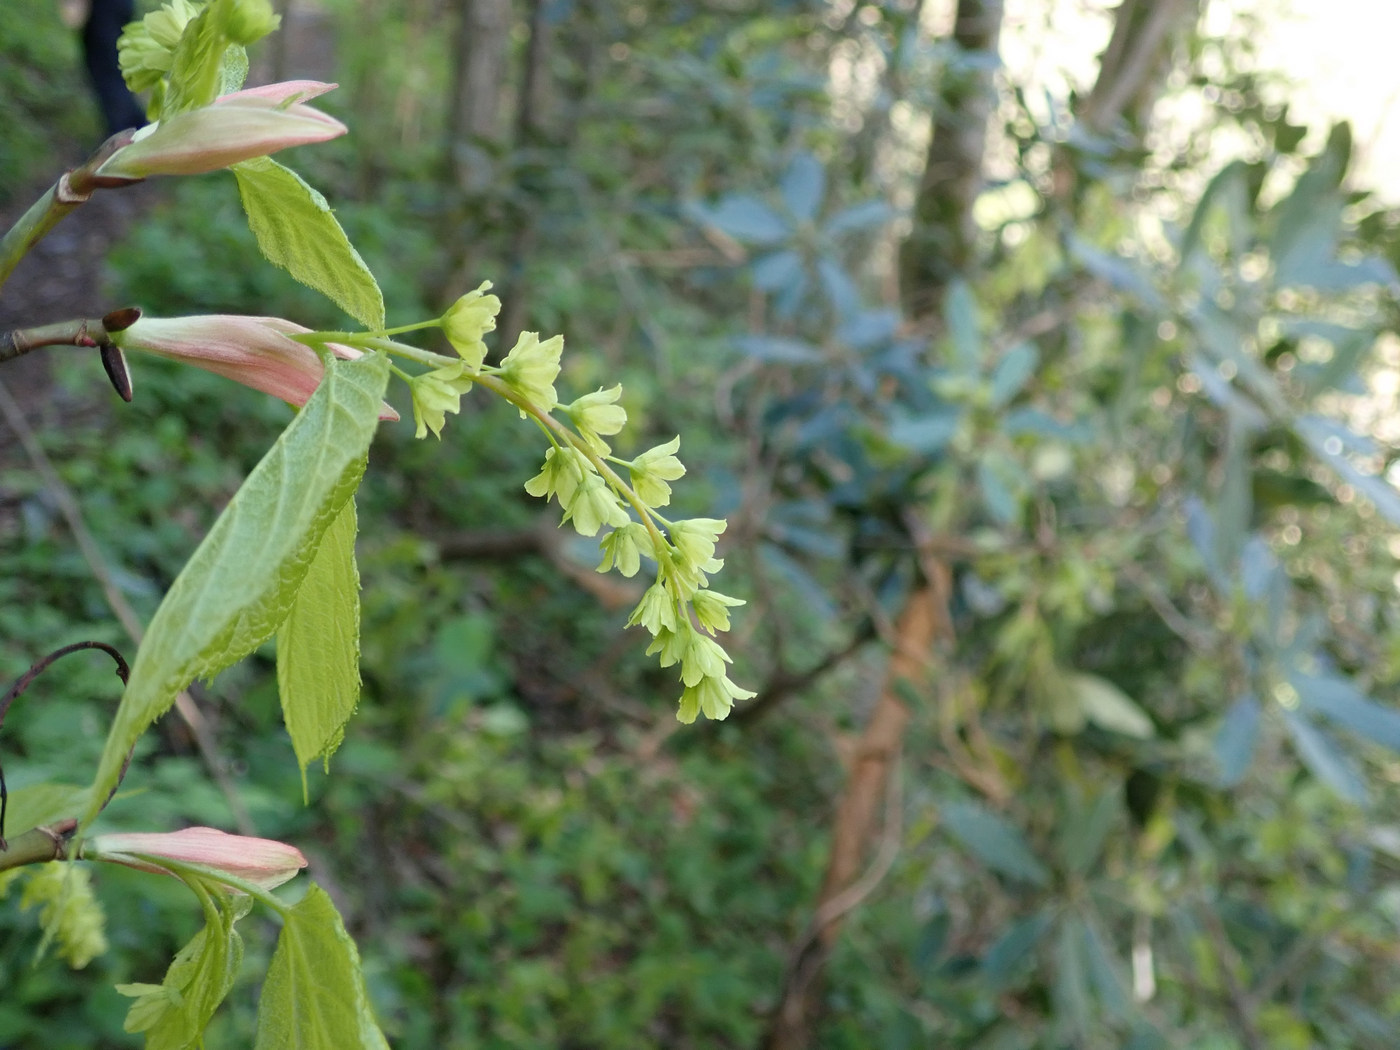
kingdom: Plantae
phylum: Tracheophyta
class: Magnoliopsida
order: Sapindales
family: Sapindaceae
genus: Acer
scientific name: Acer pensylvanicum
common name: Moosewood
